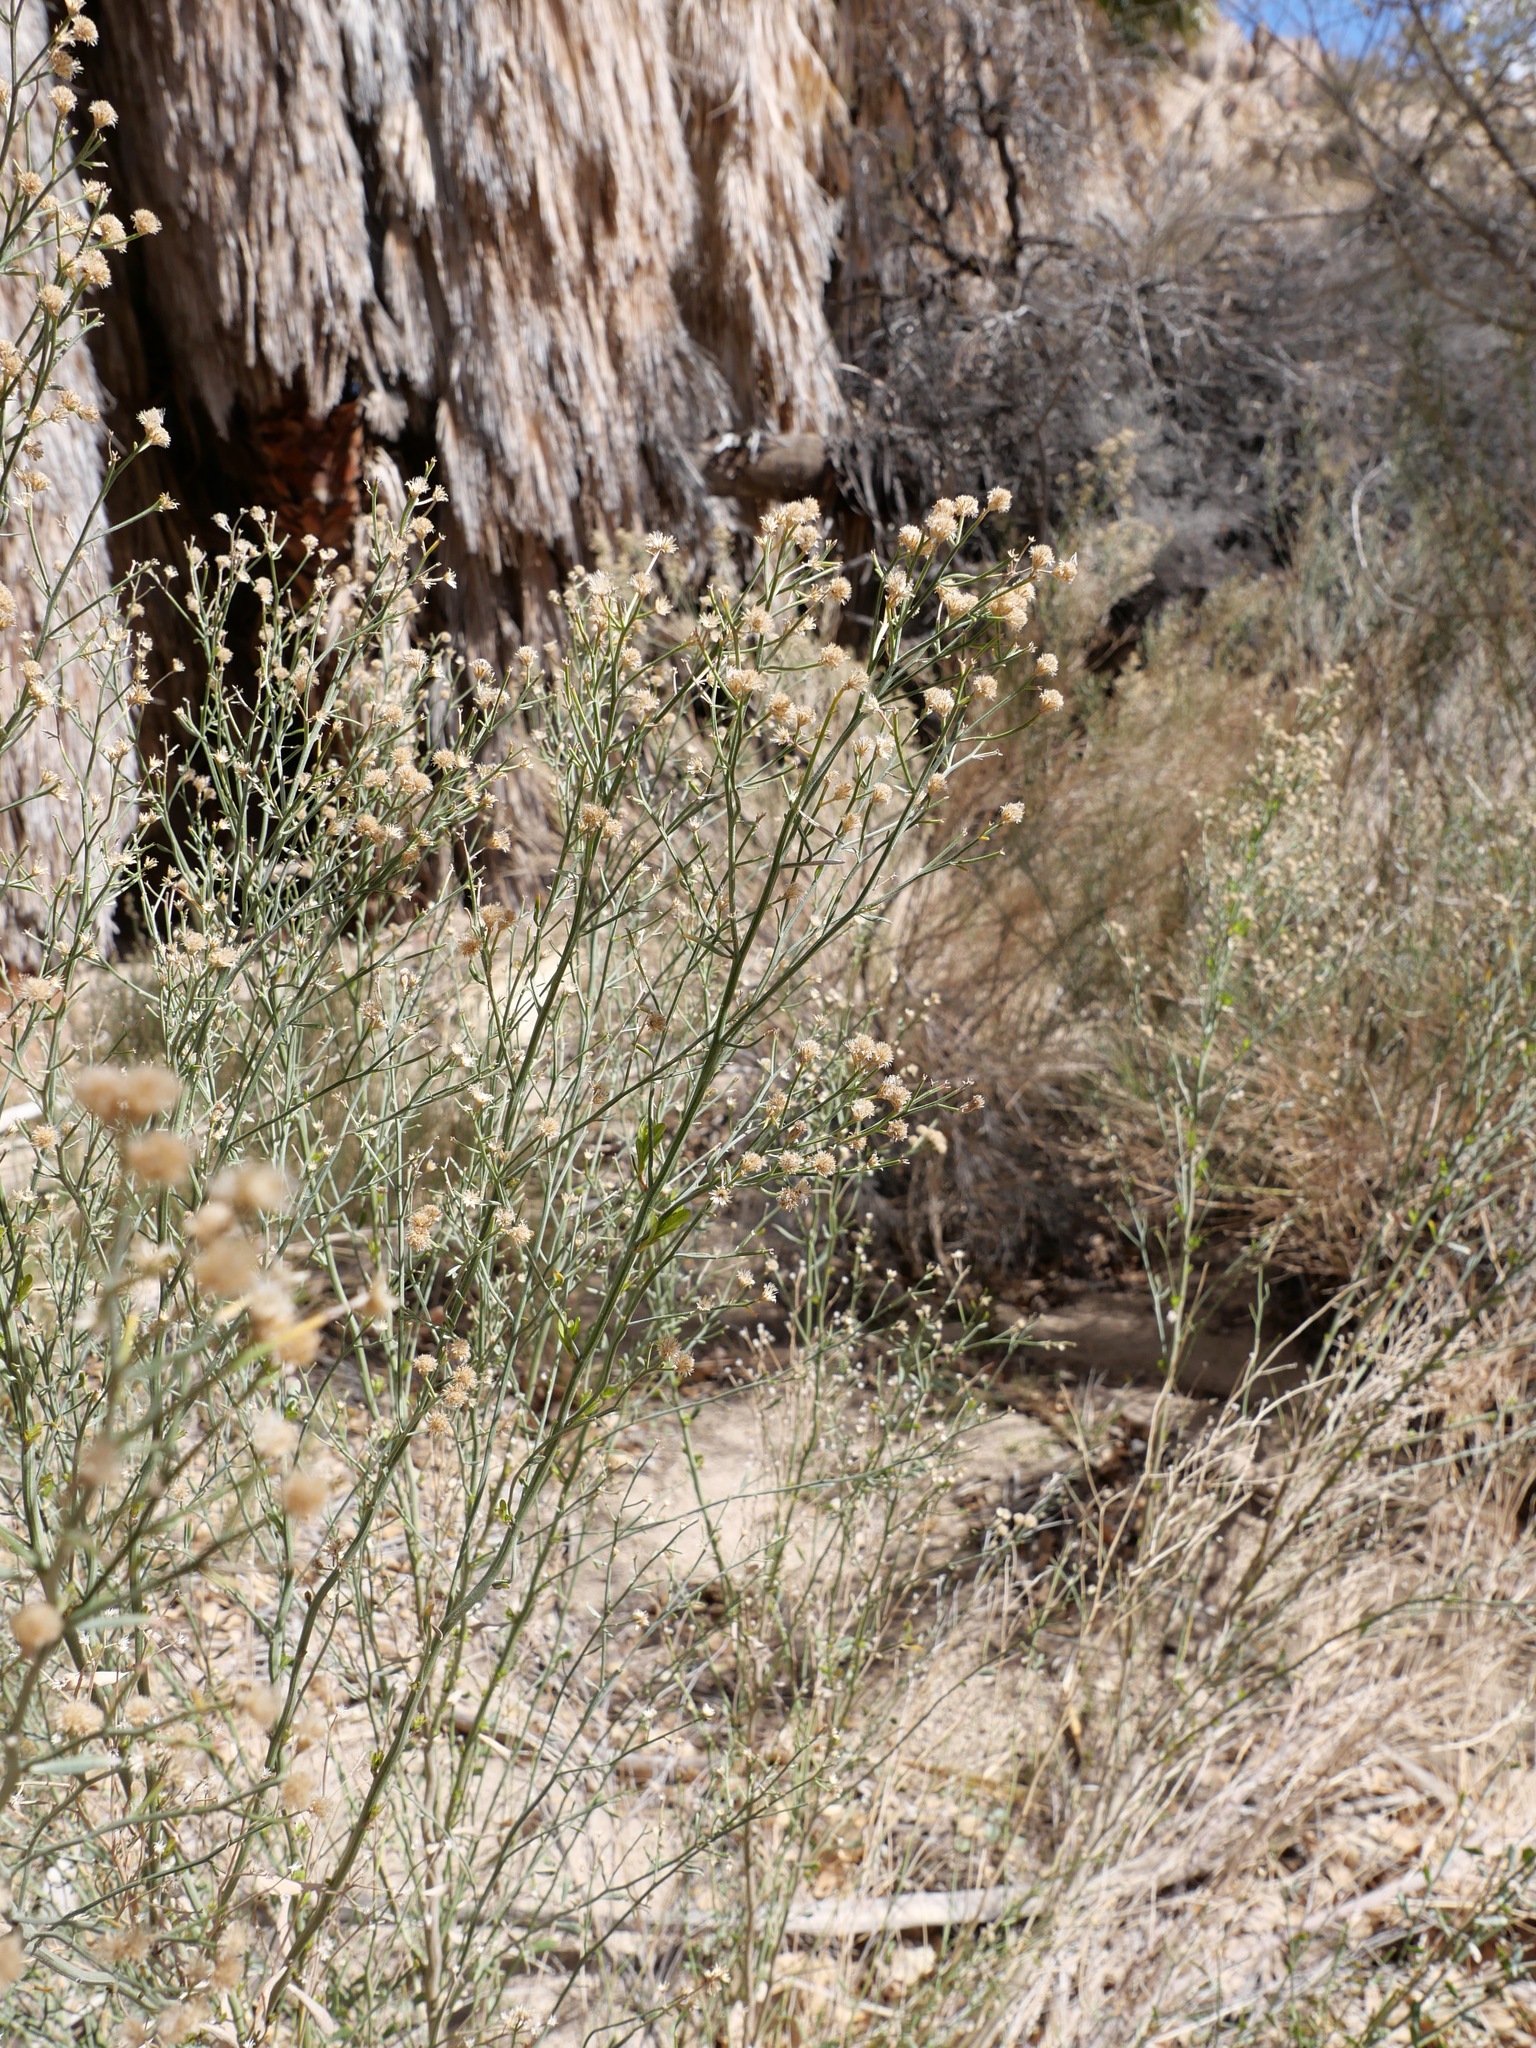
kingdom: Plantae
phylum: Tracheophyta
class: Magnoliopsida
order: Asterales
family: Asteraceae
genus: Baccharis
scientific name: Baccharis sergiloides
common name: Desert baccharis
